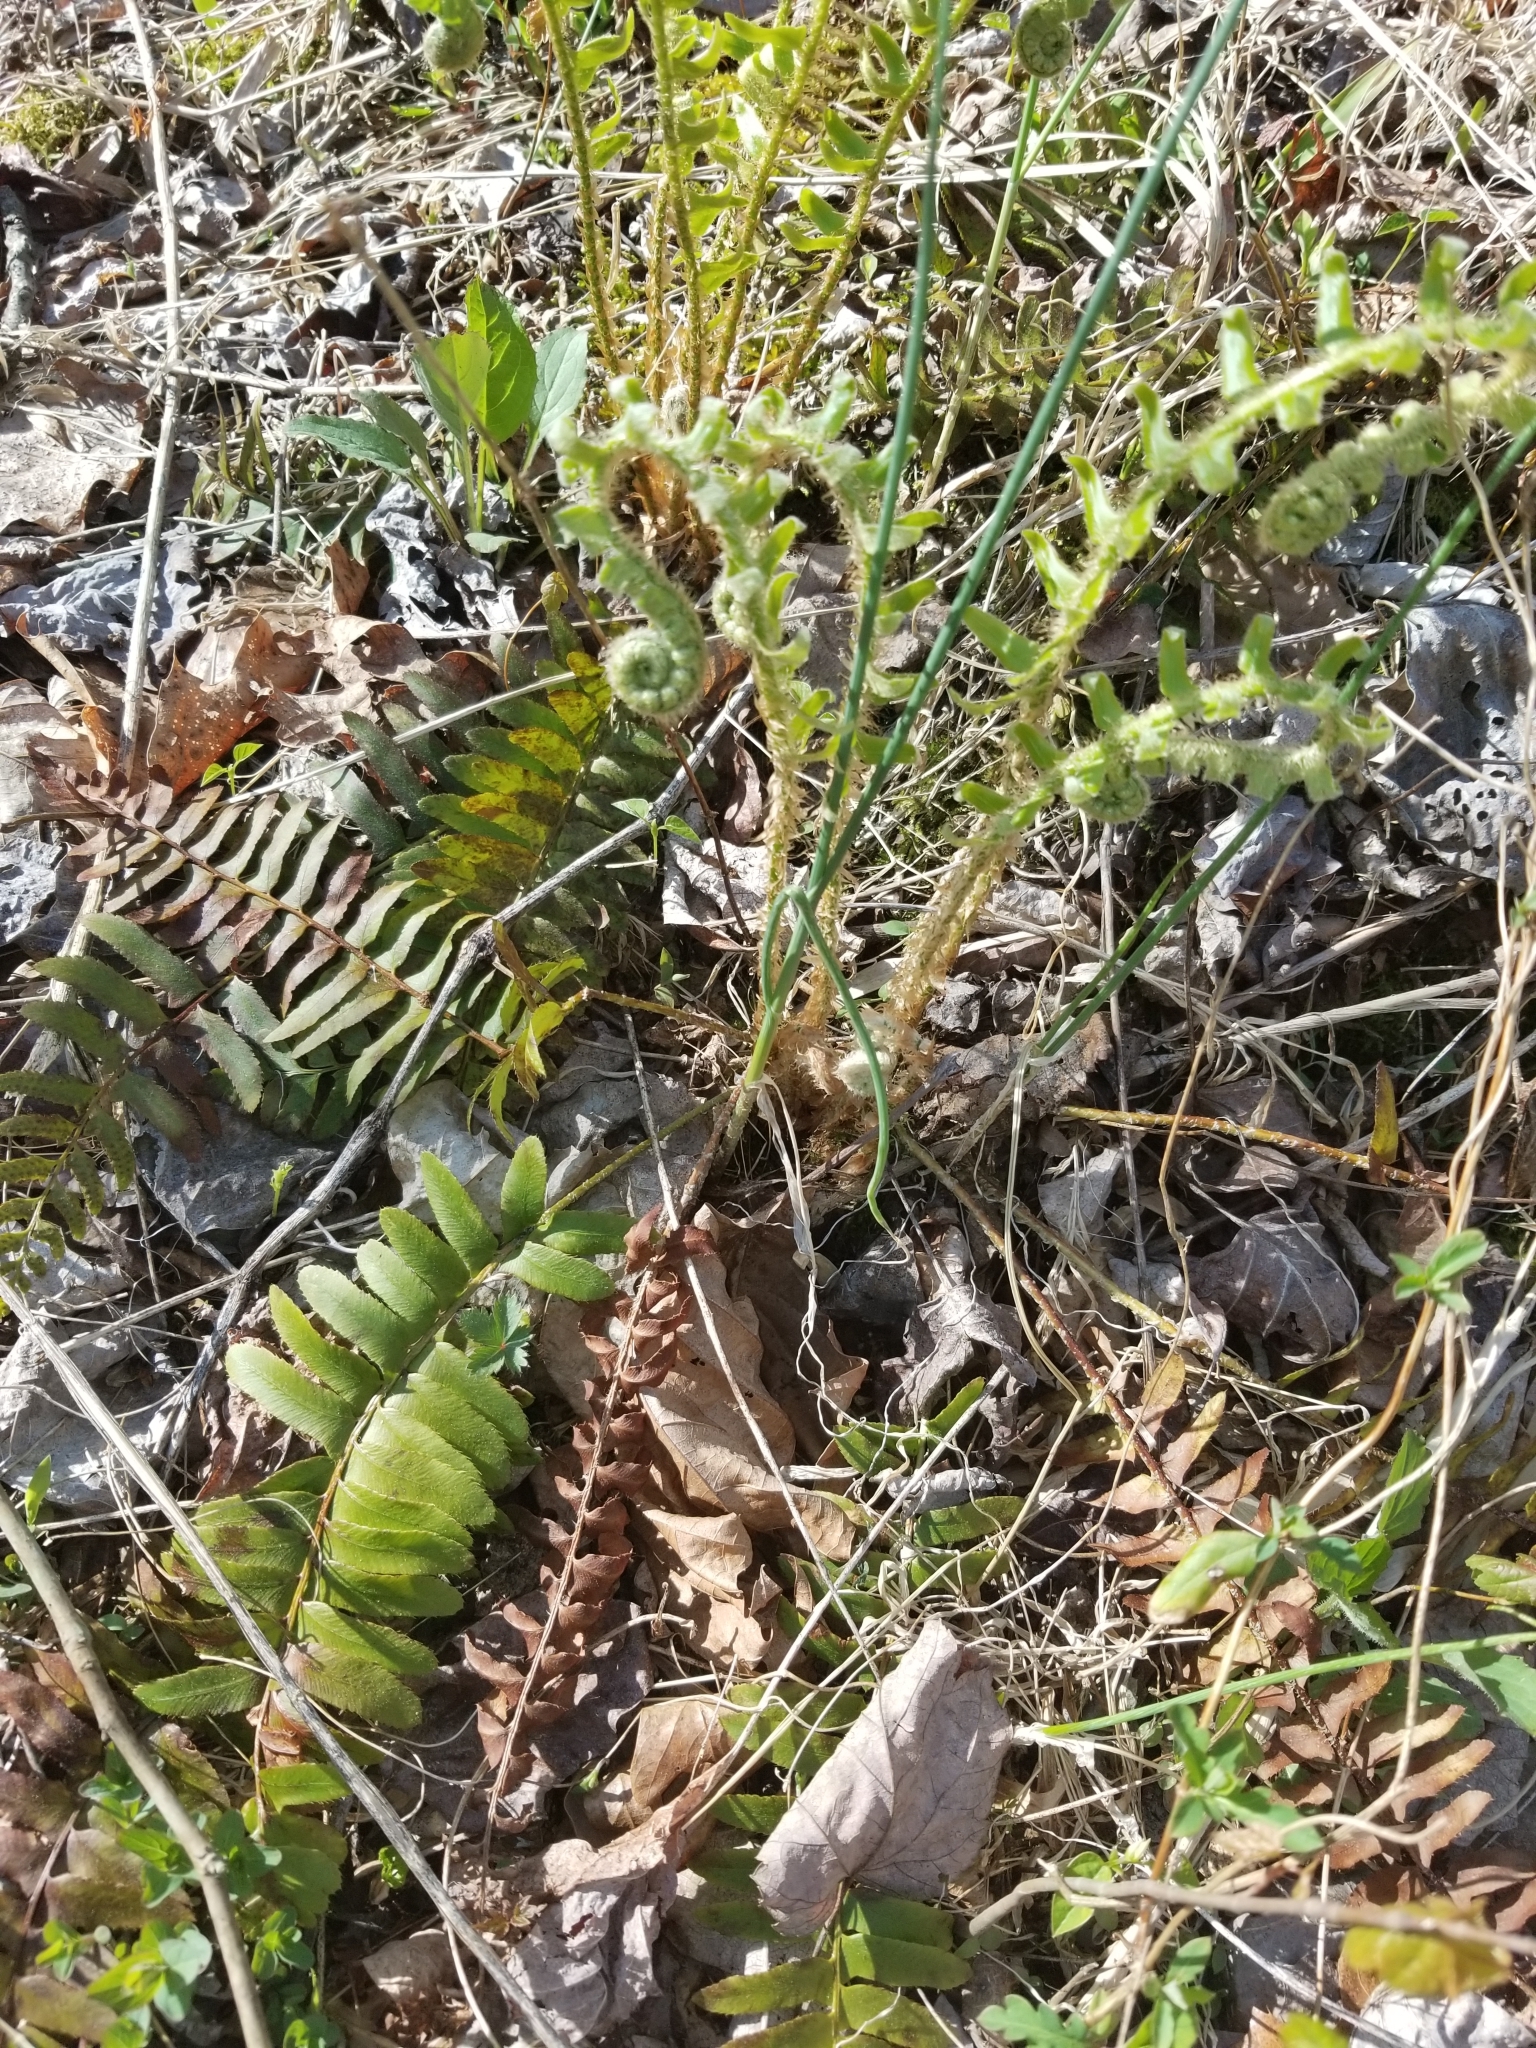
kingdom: Plantae
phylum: Tracheophyta
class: Polypodiopsida
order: Polypodiales
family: Dryopteridaceae
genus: Polystichum
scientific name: Polystichum acrostichoides
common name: Christmas fern
